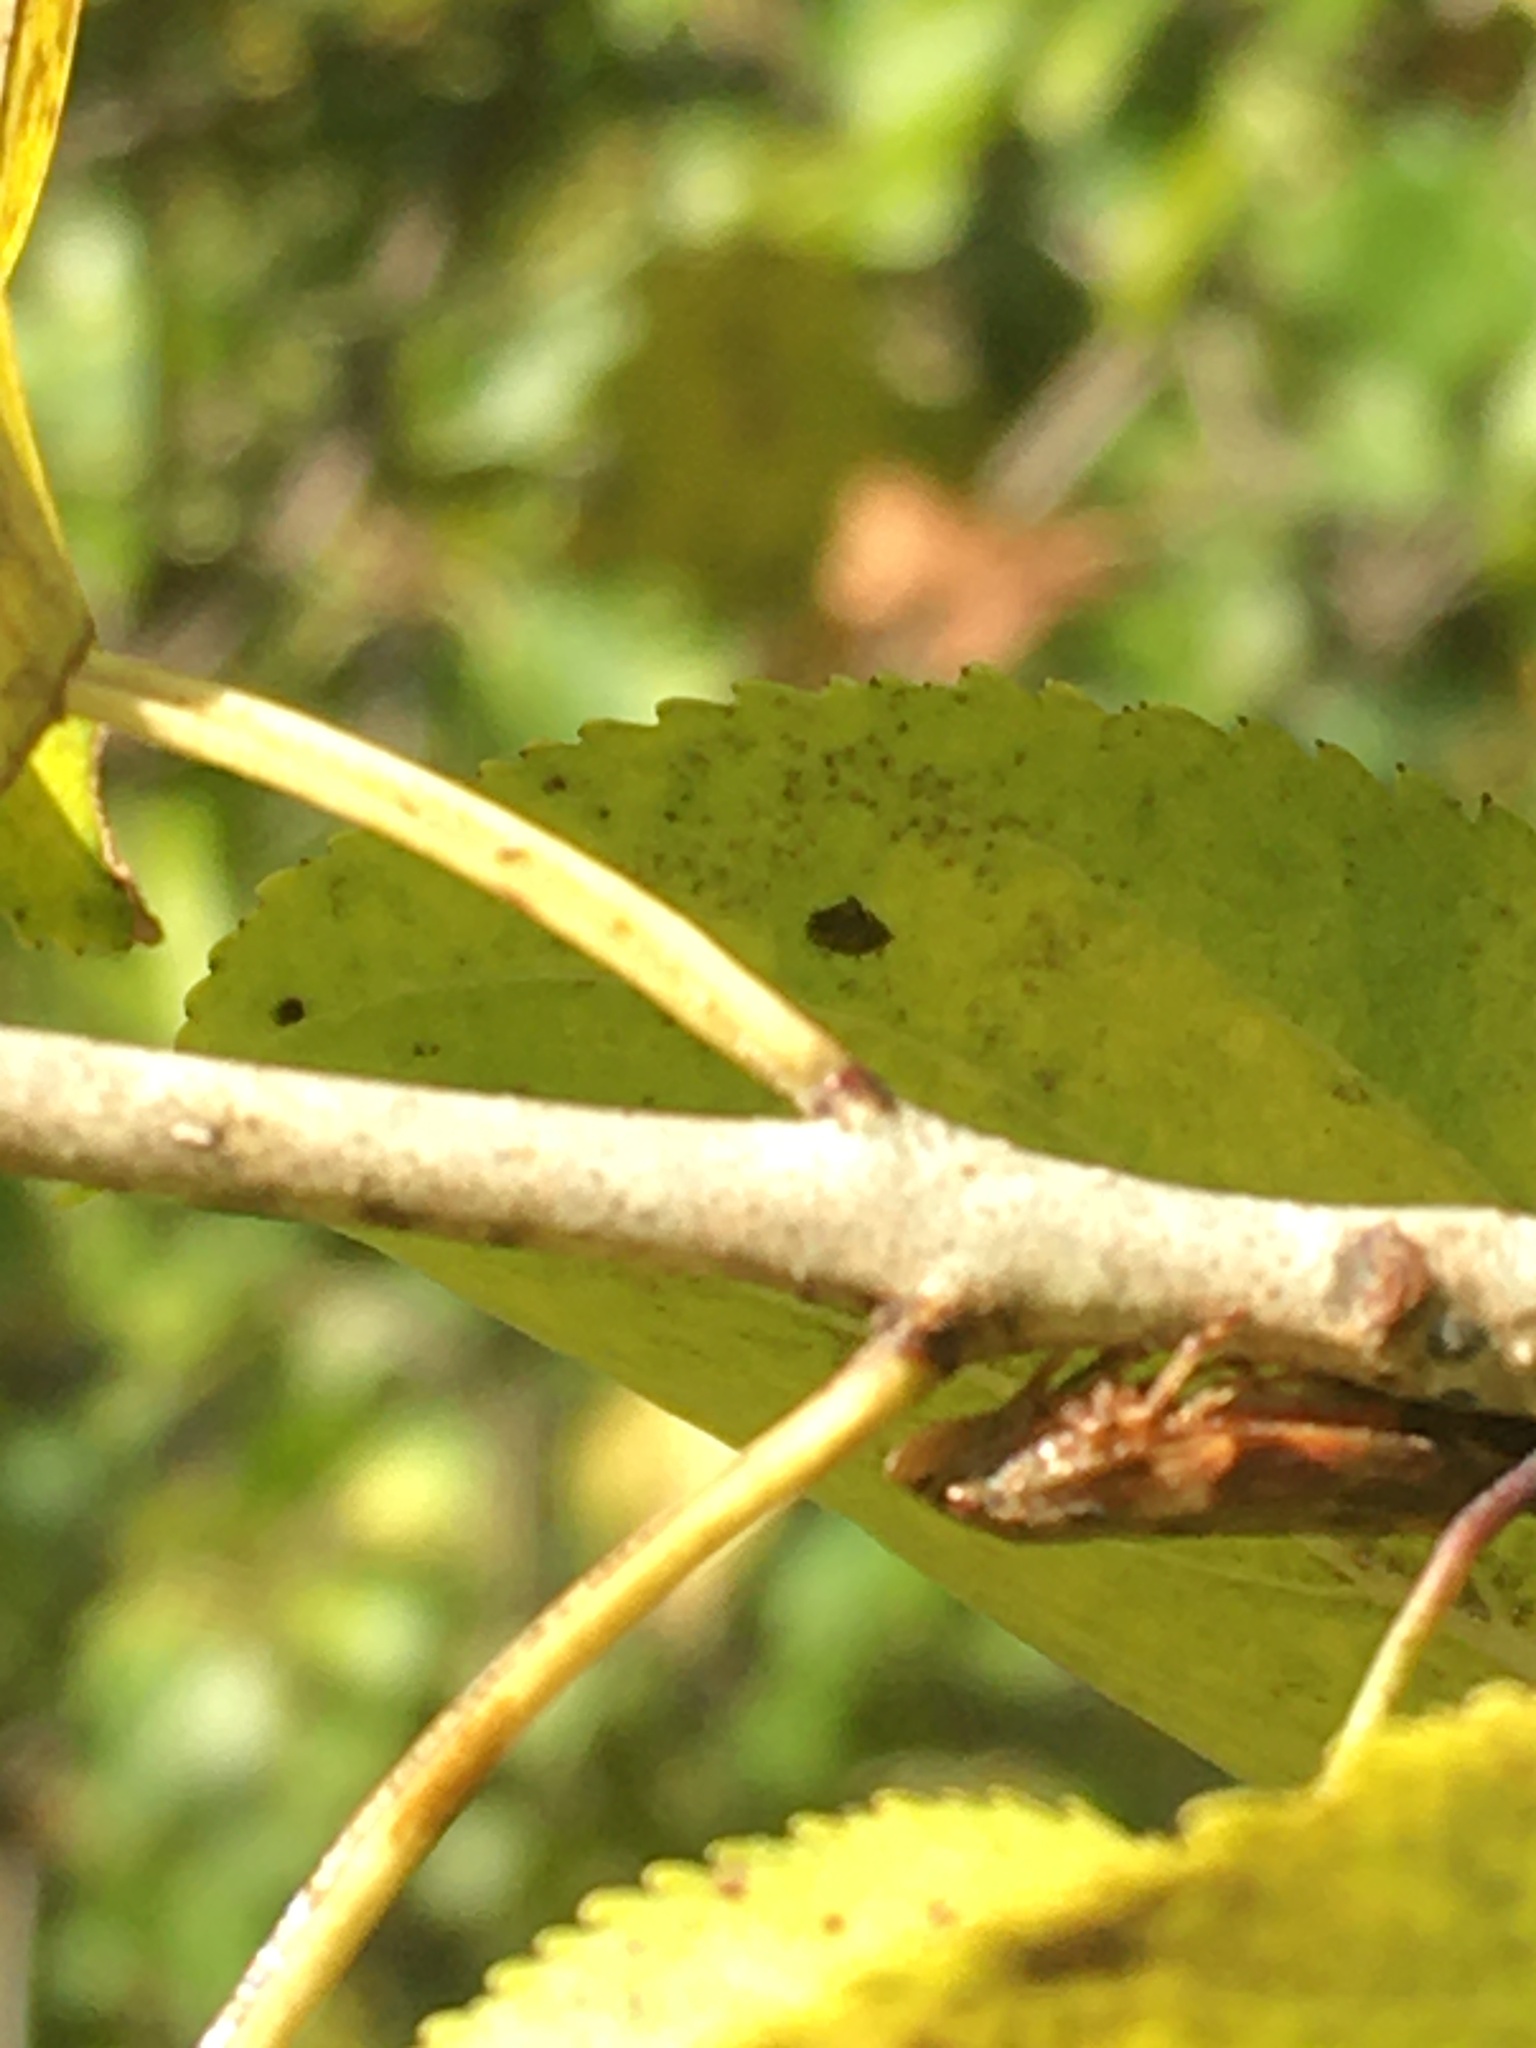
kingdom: Animalia
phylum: Arthropoda
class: Insecta
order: Hemiptera
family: Aphrophoridae
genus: Aphrophora
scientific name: Aphrophora alni
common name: European alder spittlebug
